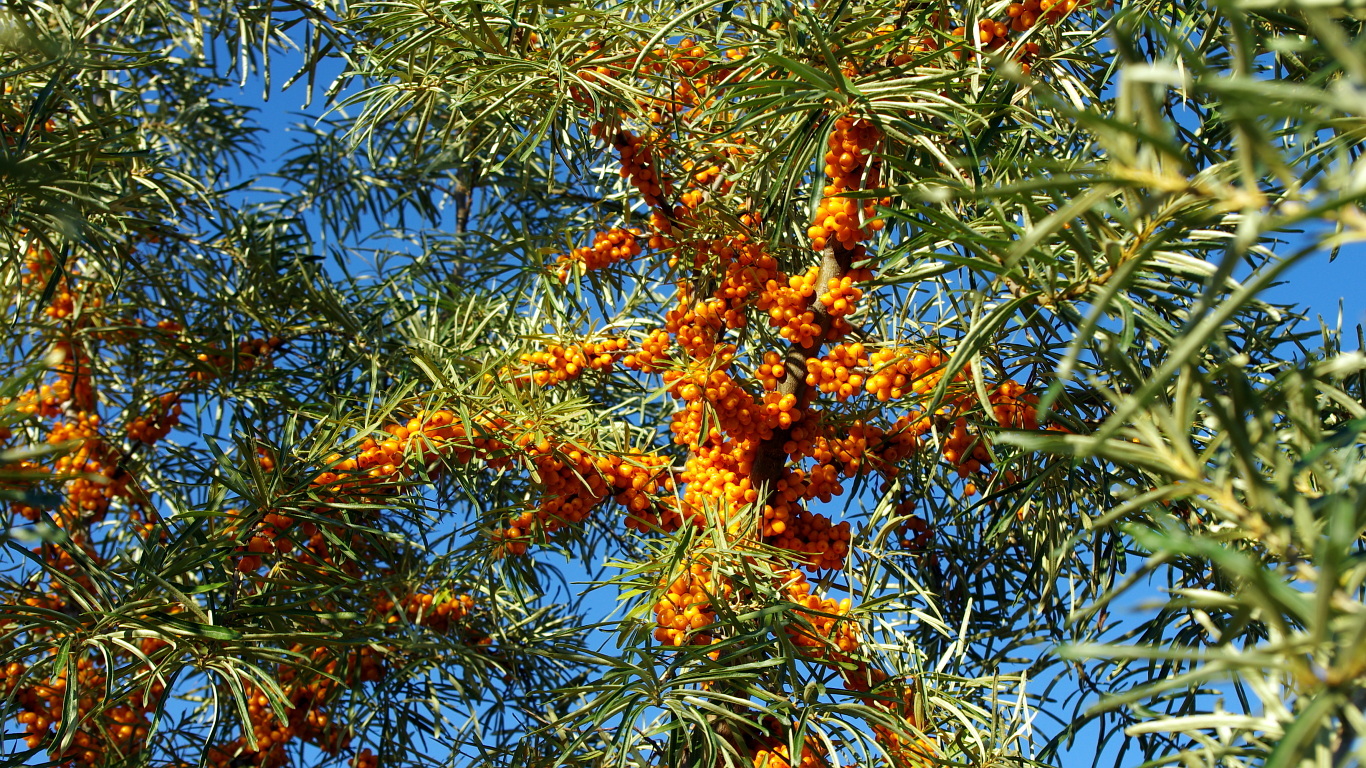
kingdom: Plantae
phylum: Tracheophyta
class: Magnoliopsida
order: Rosales
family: Elaeagnaceae
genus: Hippophae
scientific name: Hippophae rhamnoides
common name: Sea-buckthorn
